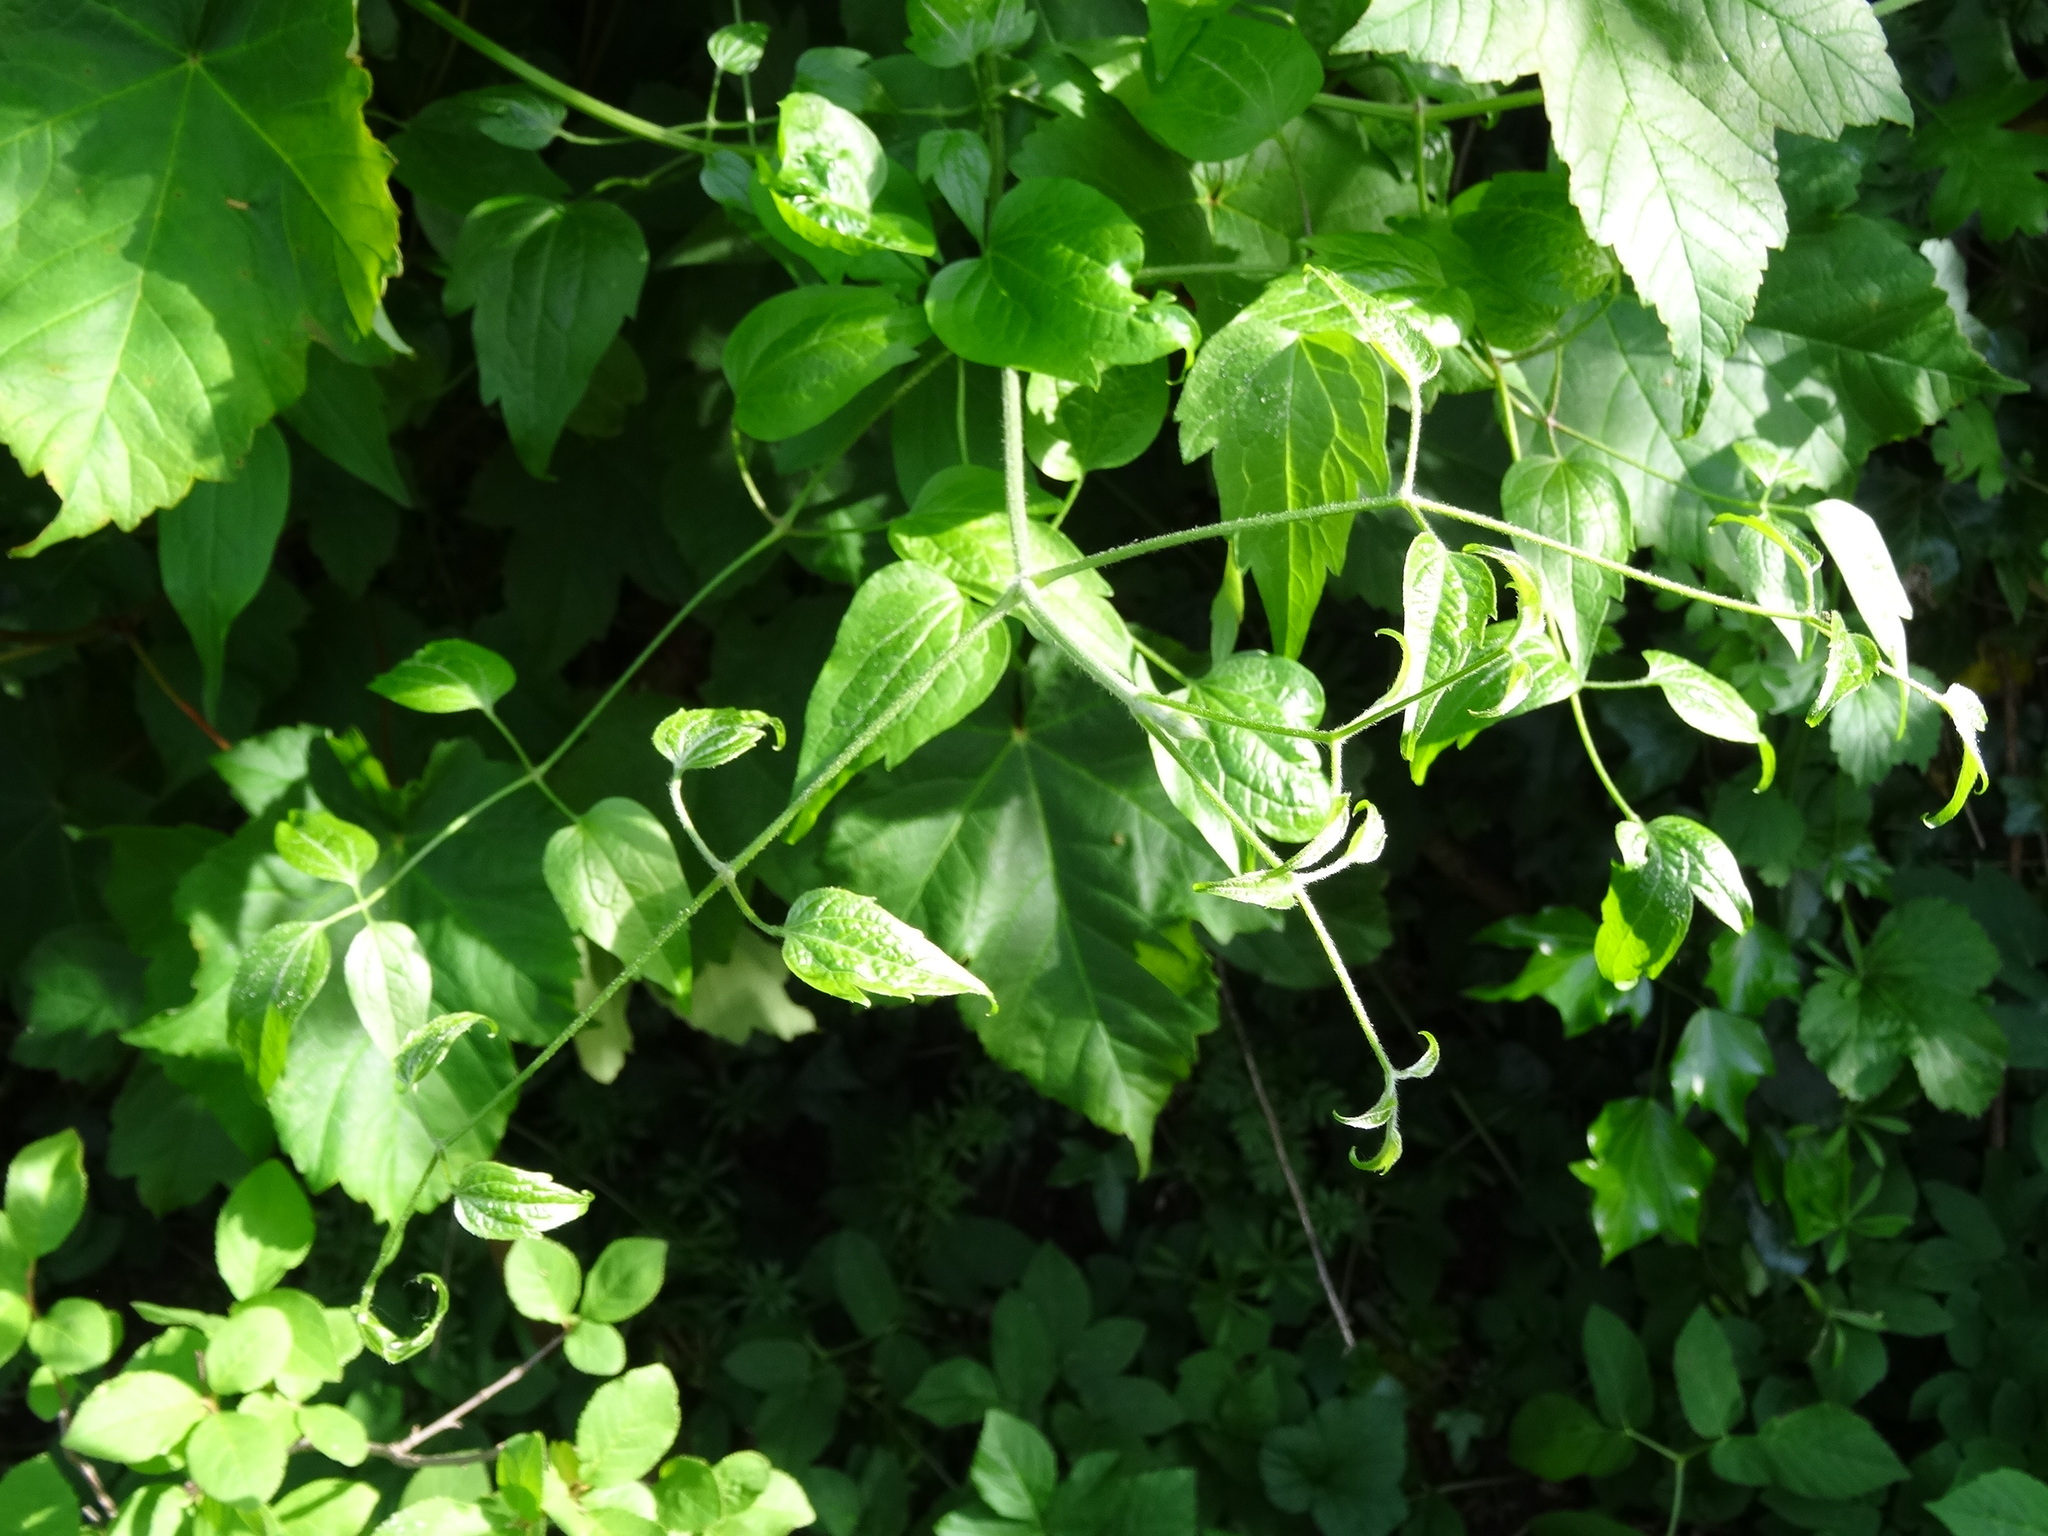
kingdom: Plantae
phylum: Tracheophyta
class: Magnoliopsida
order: Ranunculales
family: Ranunculaceae
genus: Clematis
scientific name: Clematis vitalba
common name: Evergreen clematis
